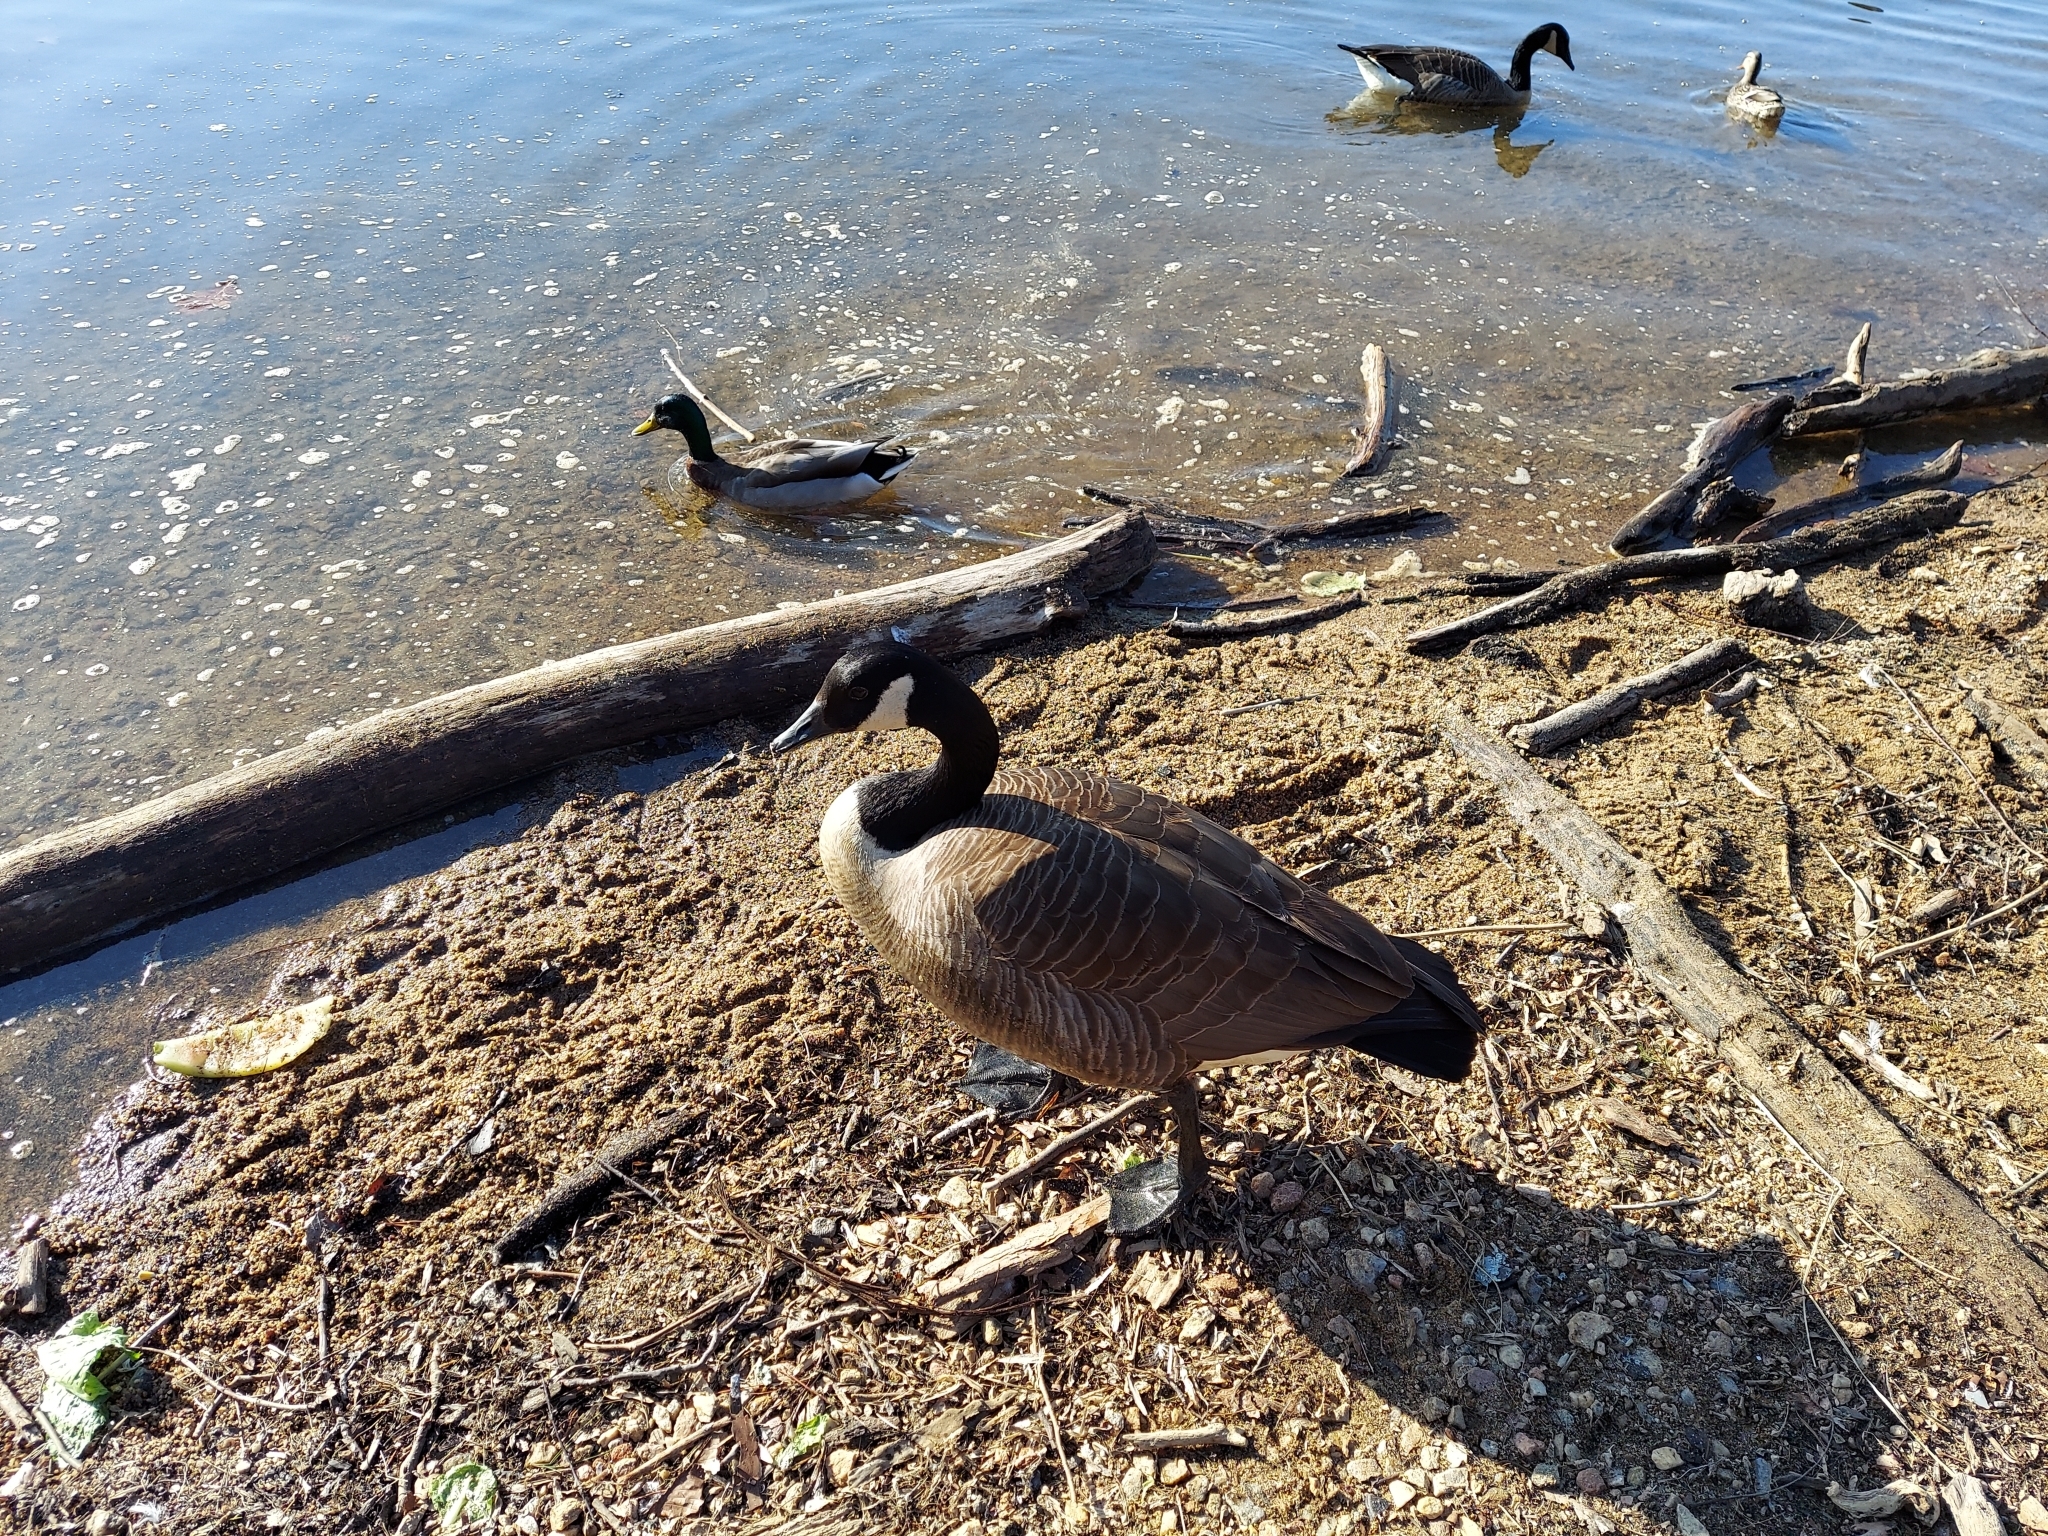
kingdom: Animalia
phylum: Chordata
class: Aves
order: Anseriformes
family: Anatidae
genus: Branta
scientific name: Branta canadensis
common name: Canada goose
